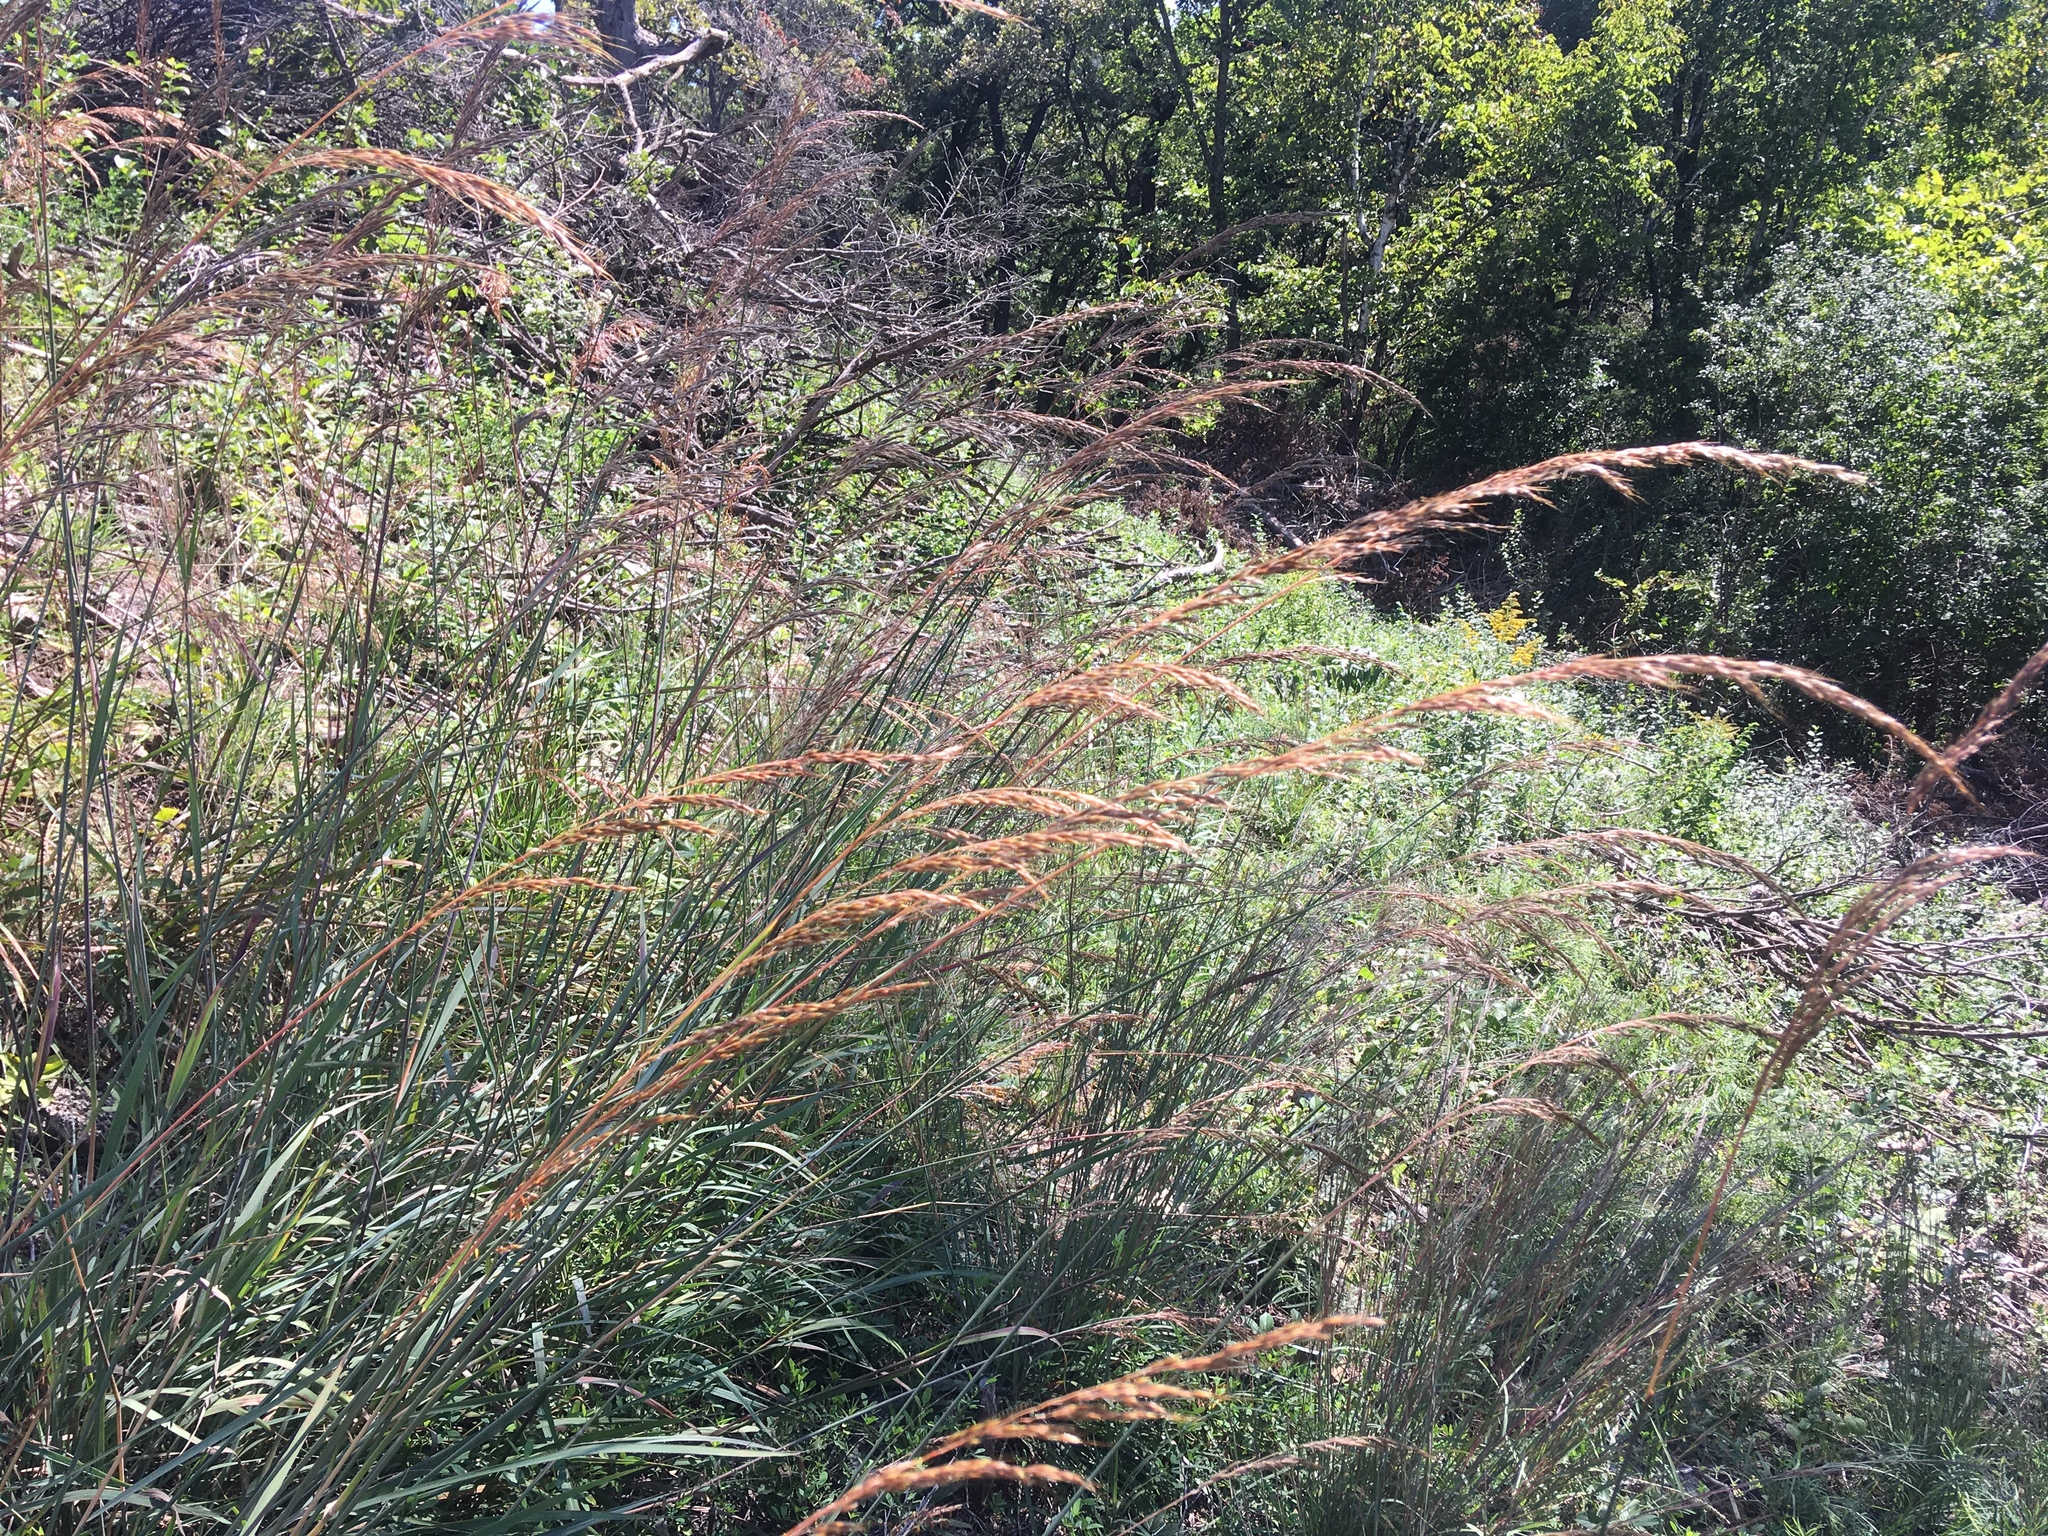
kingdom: Plantae
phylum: Tracheophyta
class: Liliopsida
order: Poales
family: Poaceae
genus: Sorghastrum
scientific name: Sorghastrum nutans
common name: Indian grass
